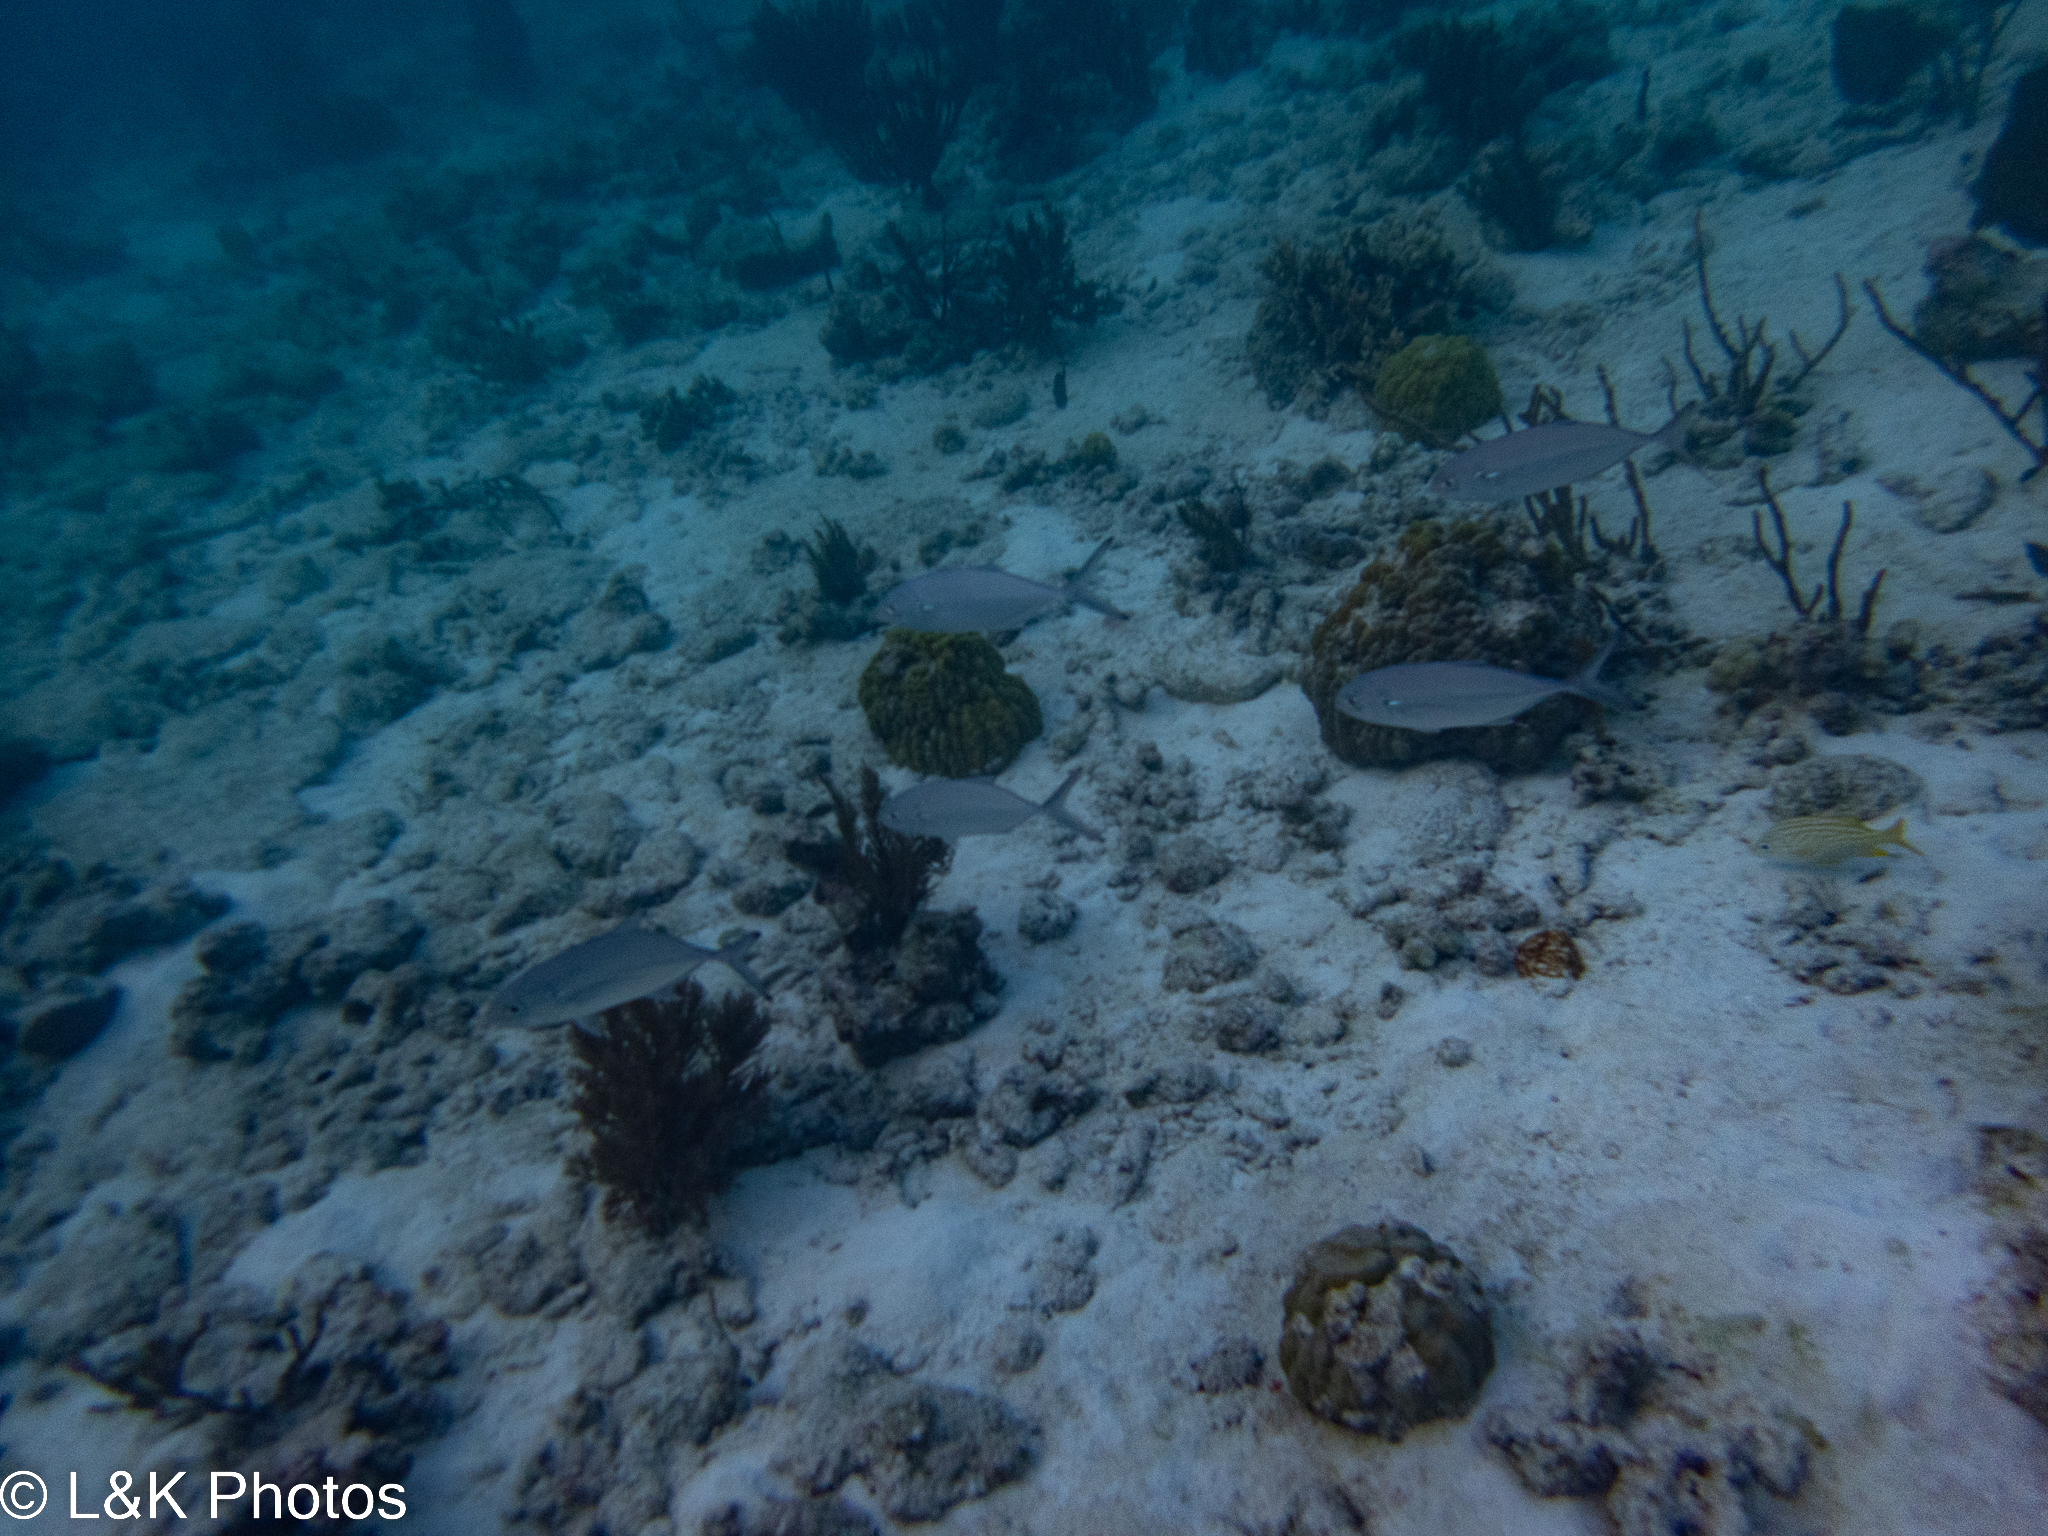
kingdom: Animalia
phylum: Chordata
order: Perciformes
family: Carangidae
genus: Caranx
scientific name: Caranx crysos
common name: Blue runner
